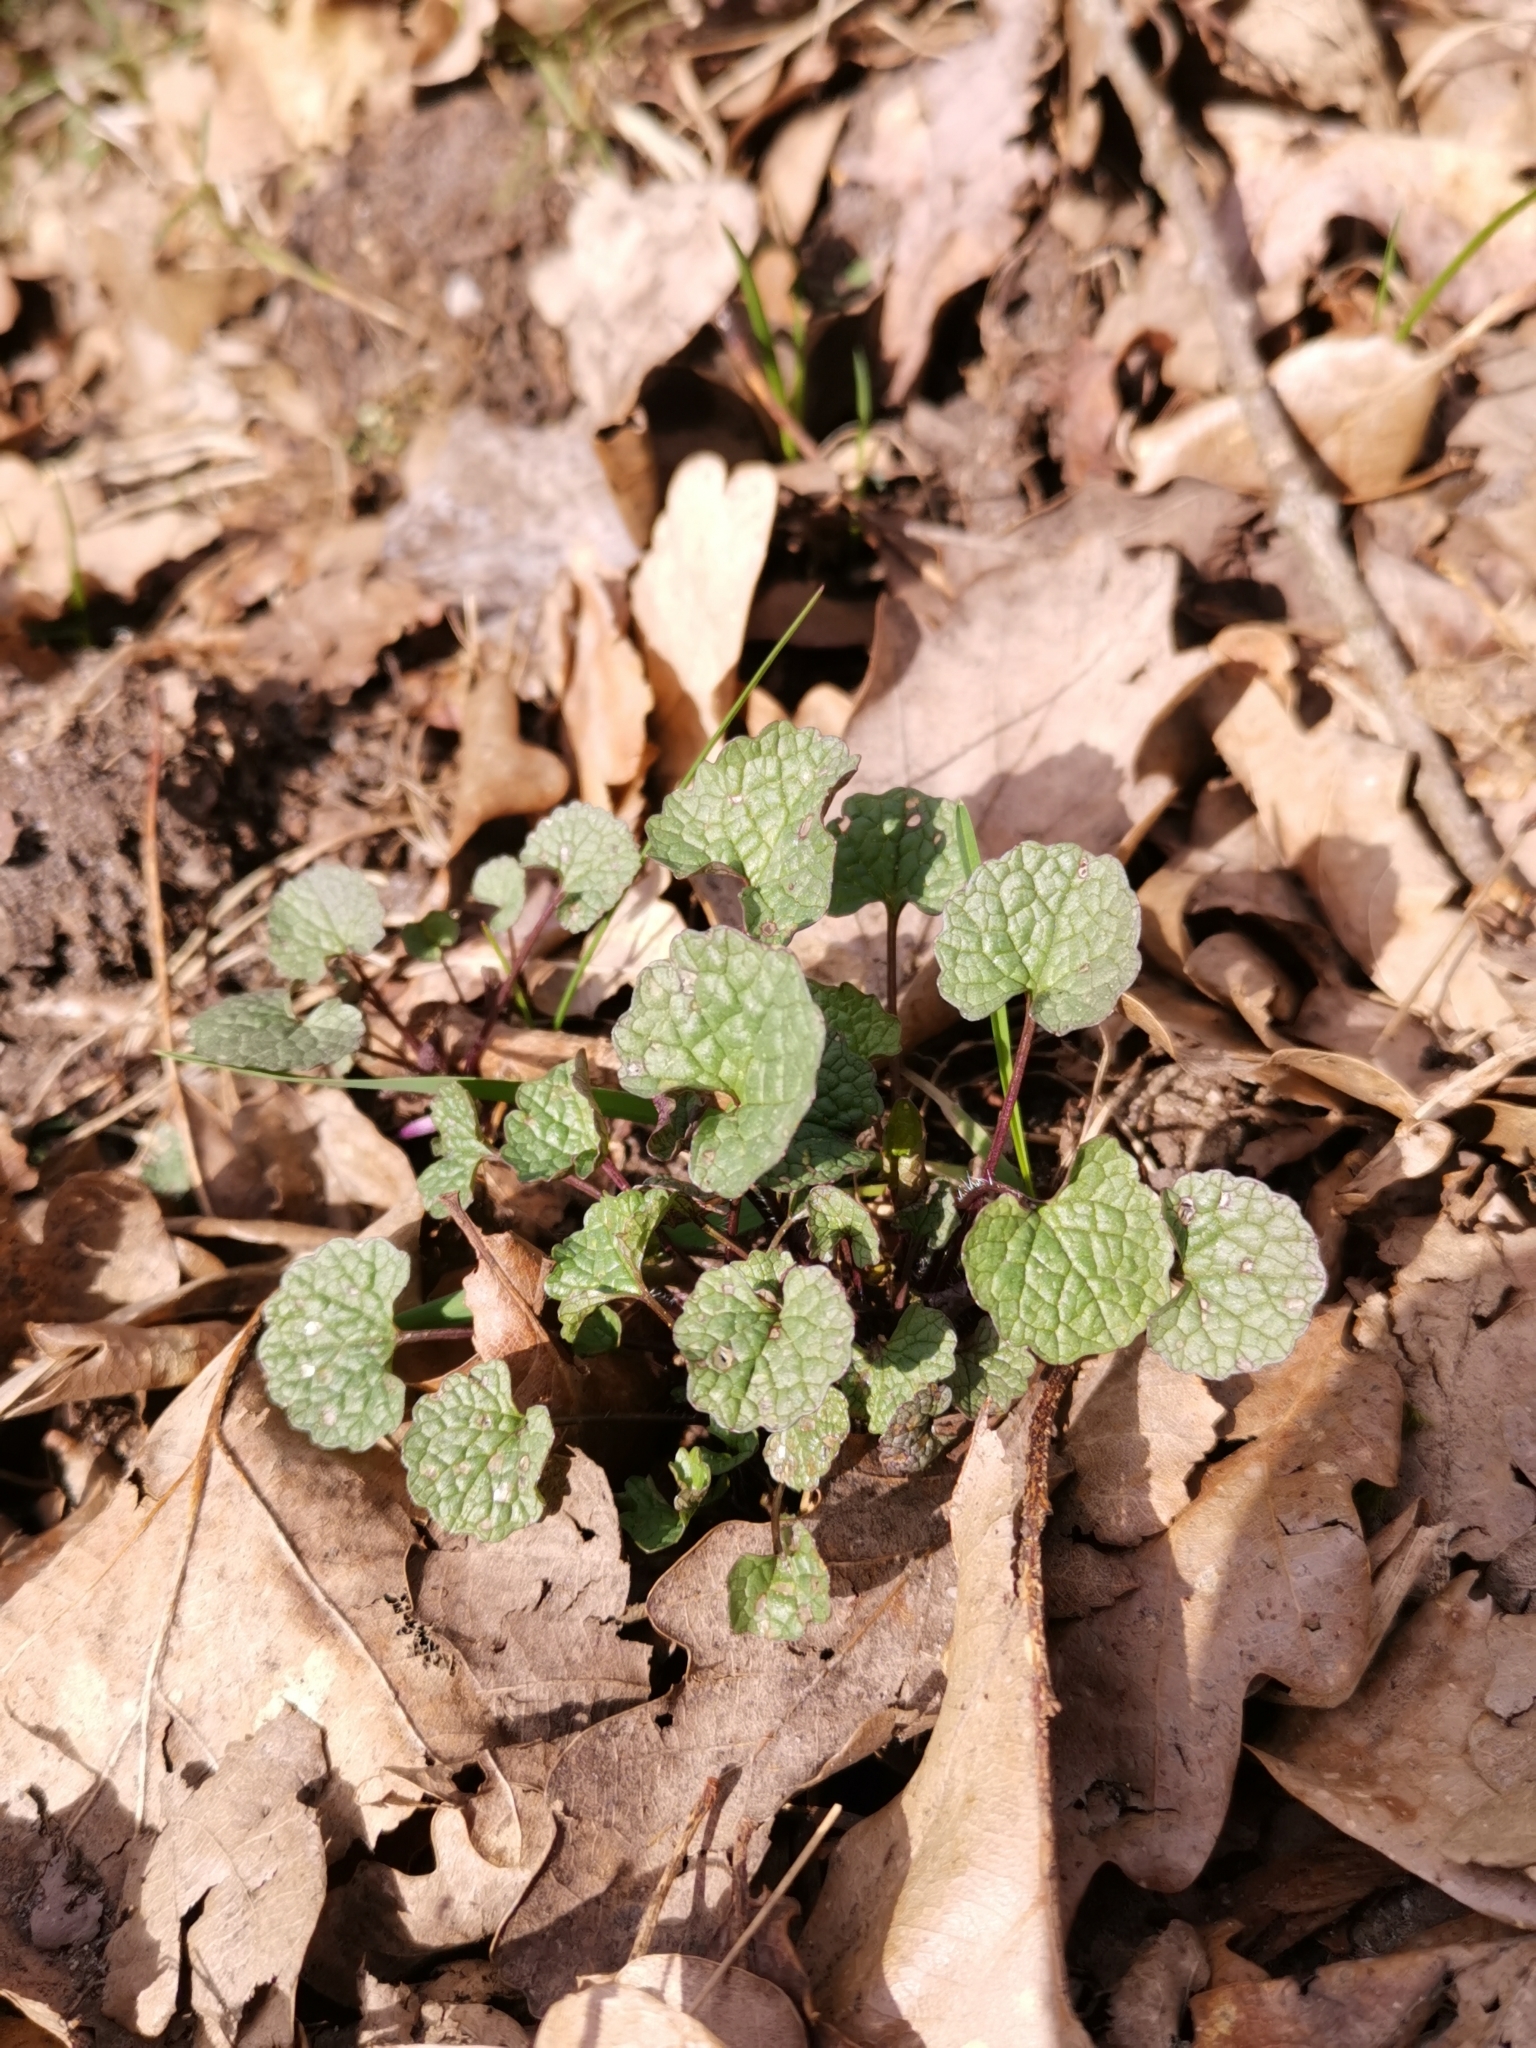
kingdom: Plantae
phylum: Tracheophyta
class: Magnoliopsida
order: Brassicales
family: Brassicaceae
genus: Alliaria
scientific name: Alliaria petiolata
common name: Garlic mustard
